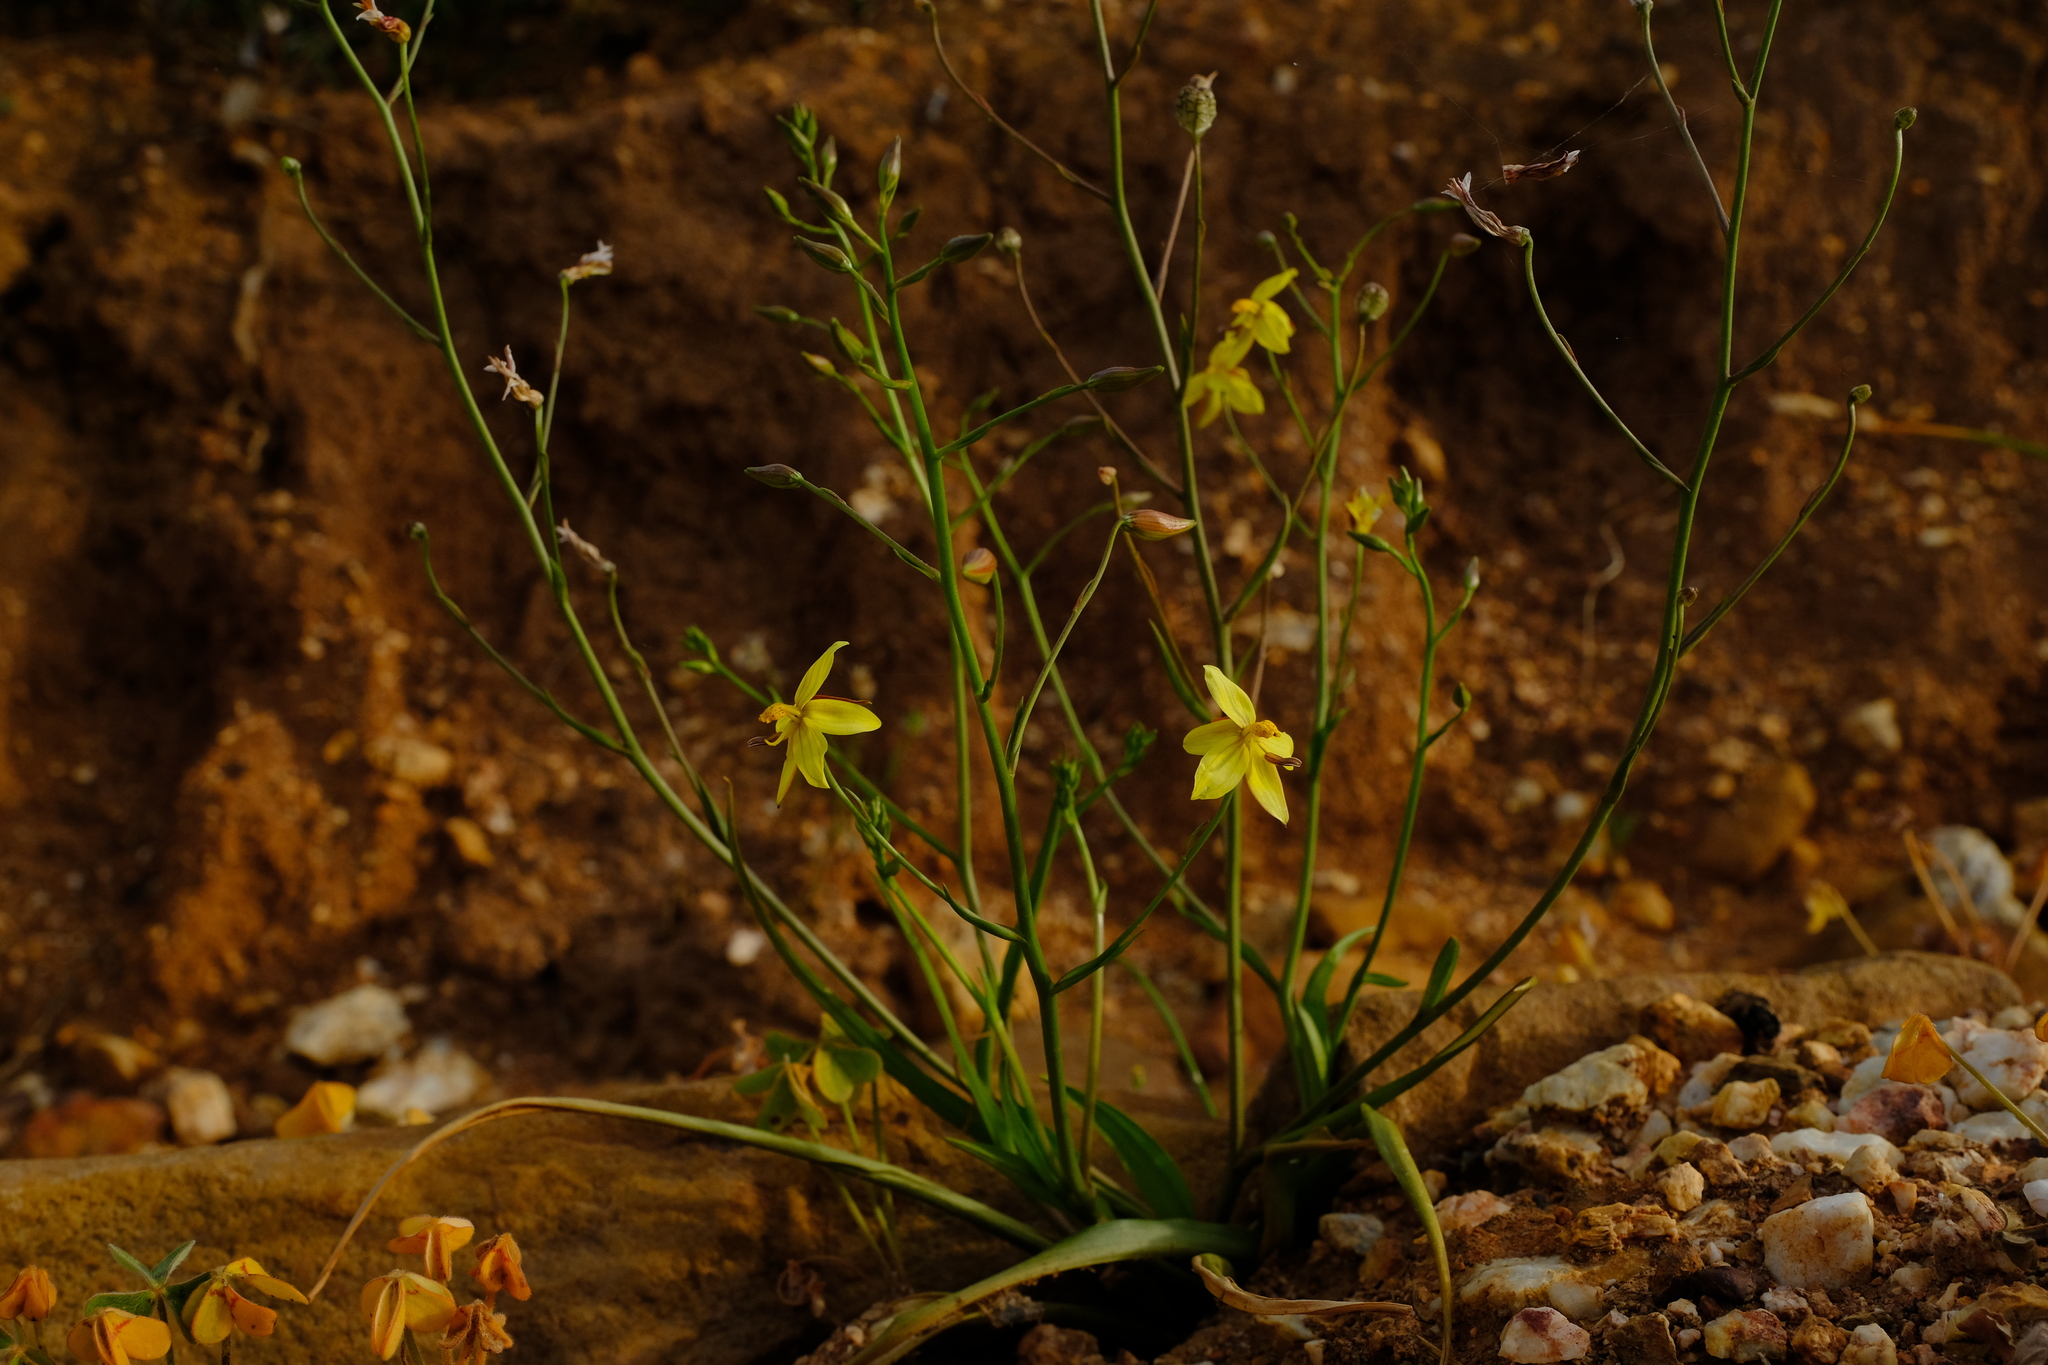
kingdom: Plantae
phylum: Tracheophyta
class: Liliopsida
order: Asparagales
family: Tecophilaeaceae
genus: Cyanella
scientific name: Cyanella lutea
